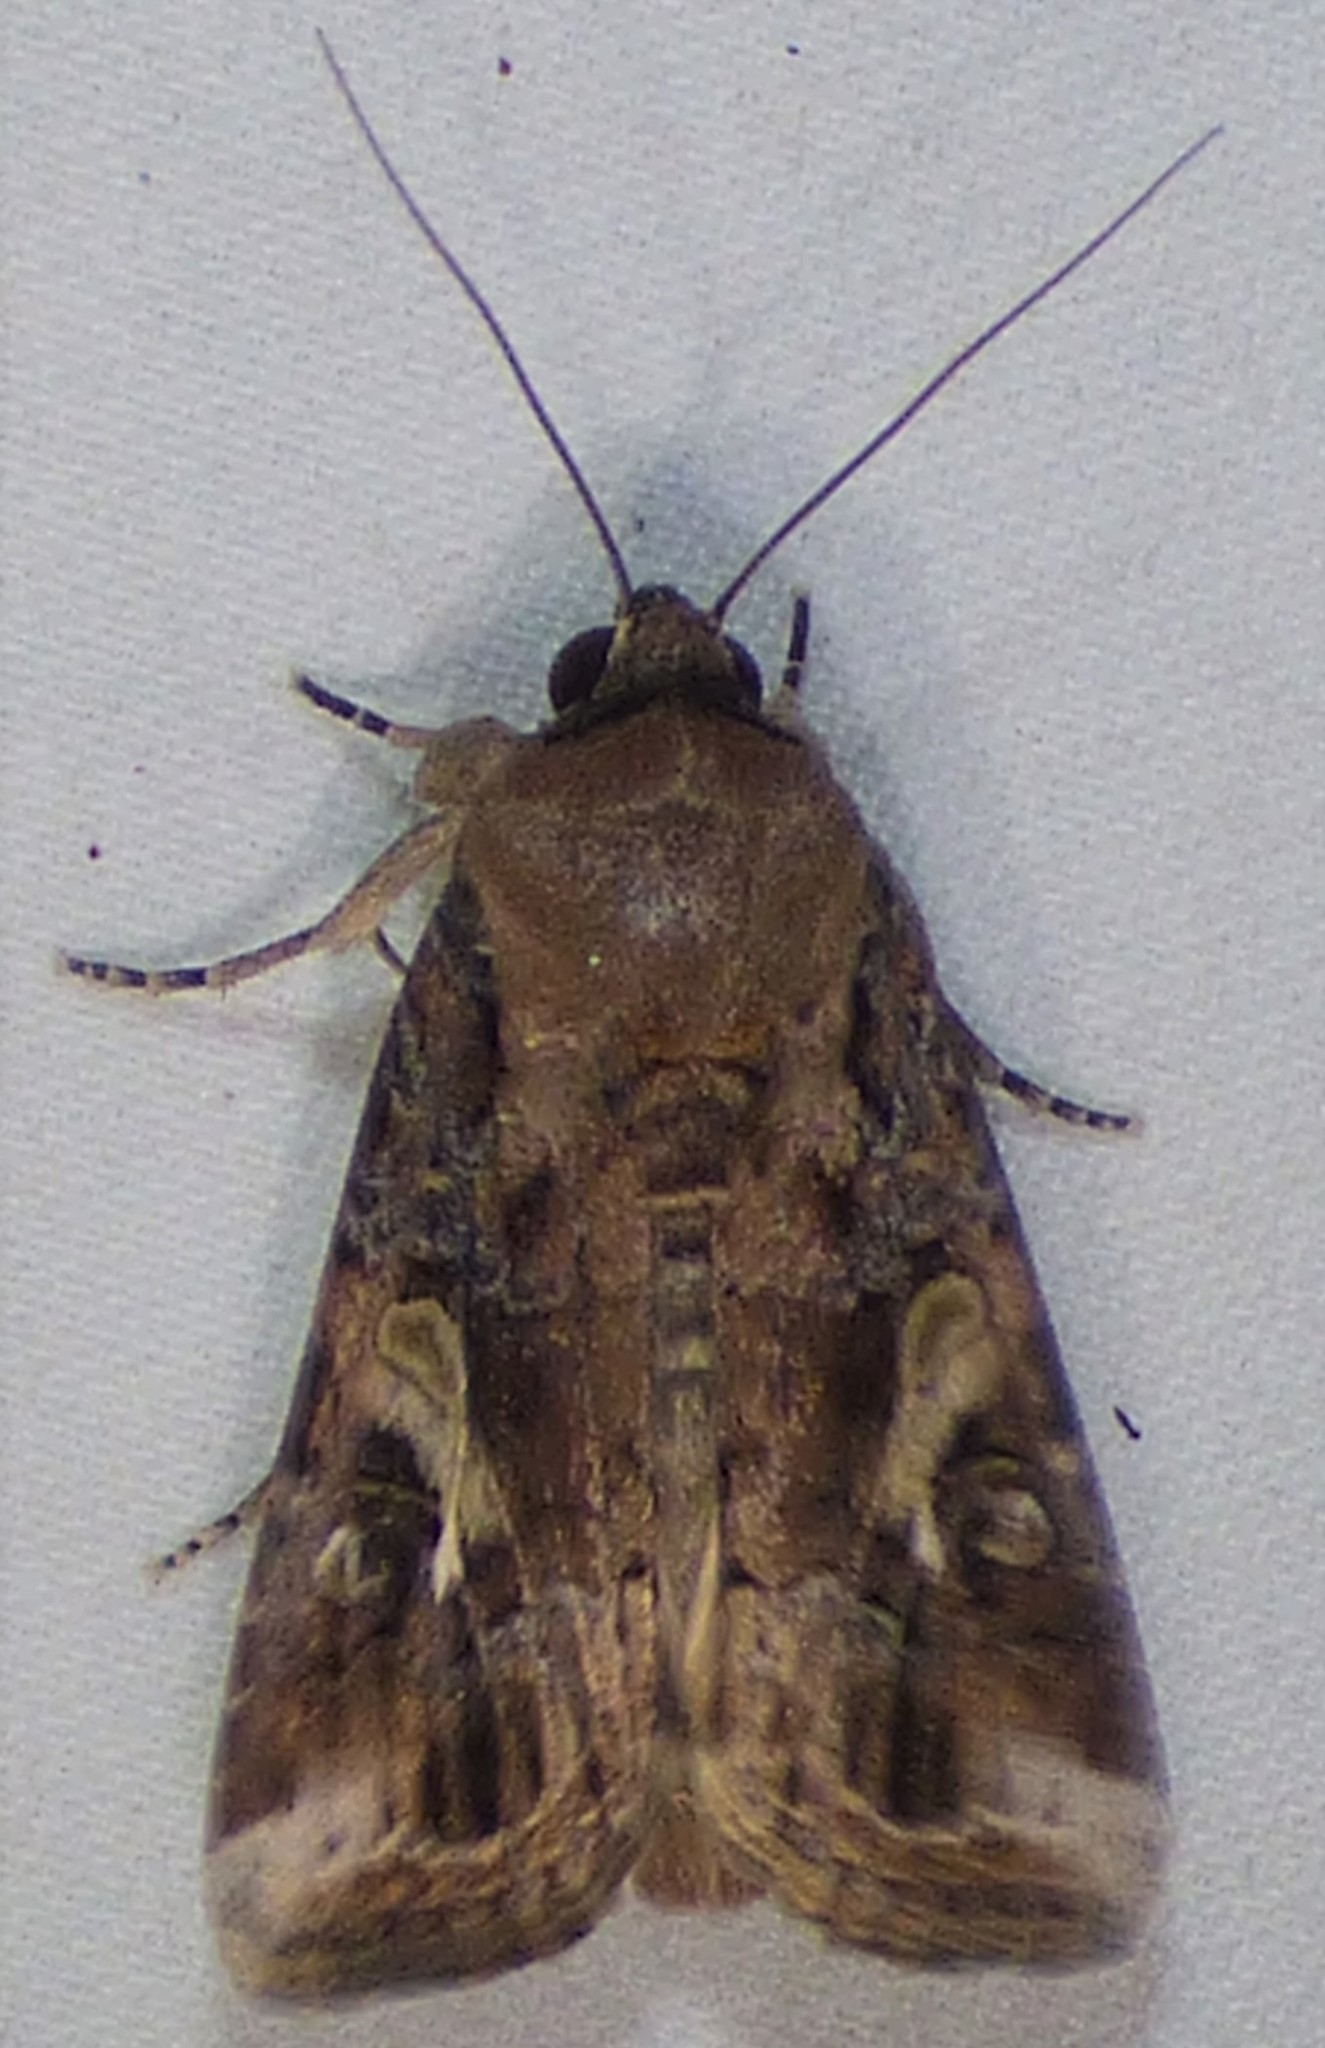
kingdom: Animalia
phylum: Arthropoda
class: Insecta
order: Lepidoptera
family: Noctuidae
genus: Spodoptera
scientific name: Spodoptera frugiperda
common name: Fall armyworm
